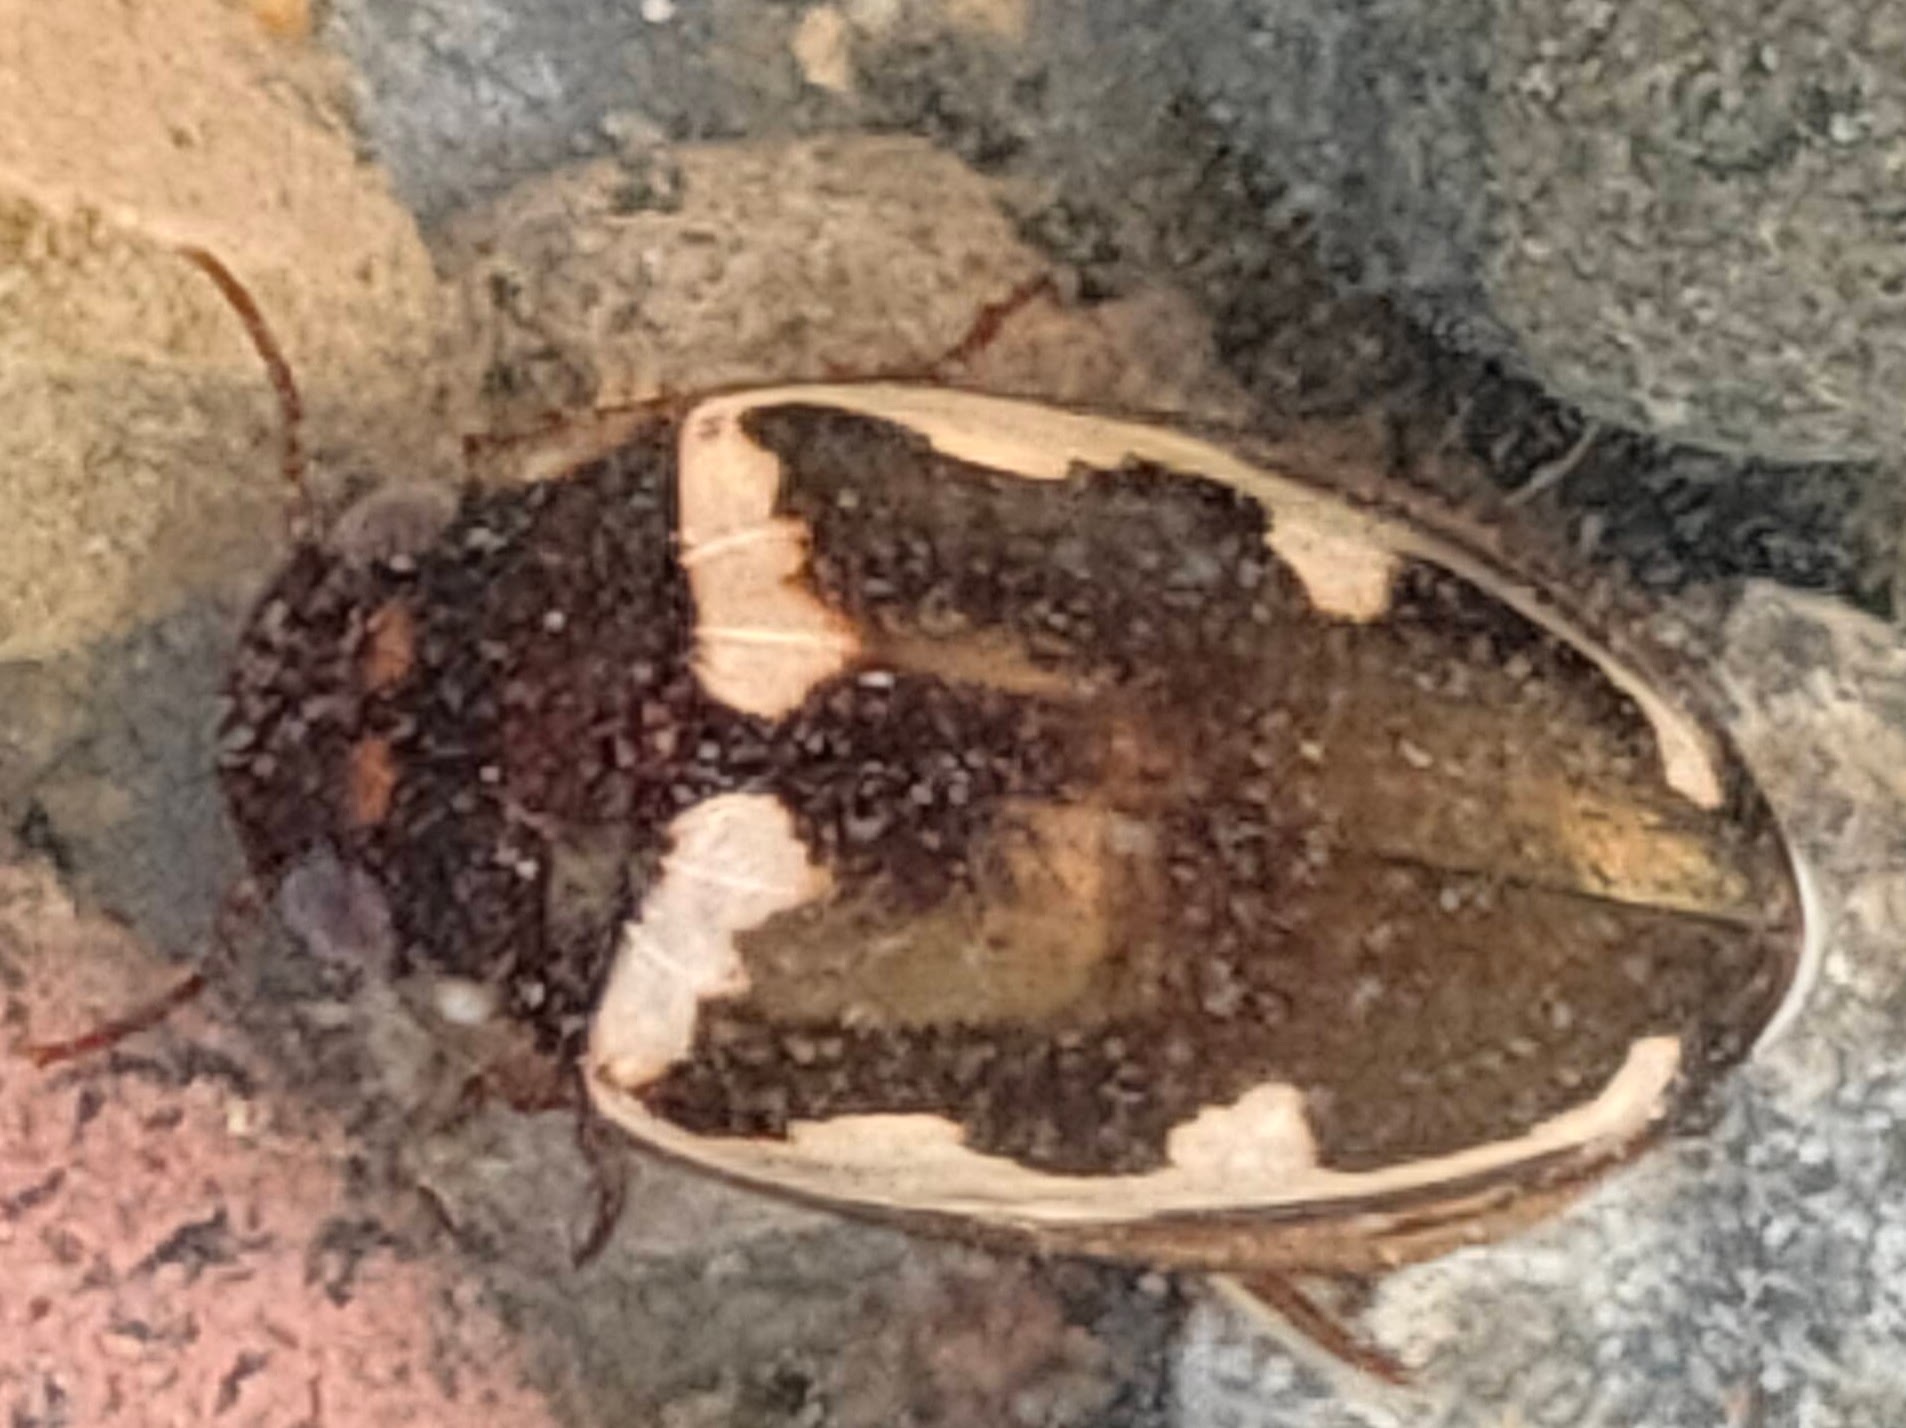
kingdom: Animalia
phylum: Arthropoda
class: Insecta
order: Coleoptera
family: Dytiscidae
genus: Platambus
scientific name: Platambus fimbriatus
